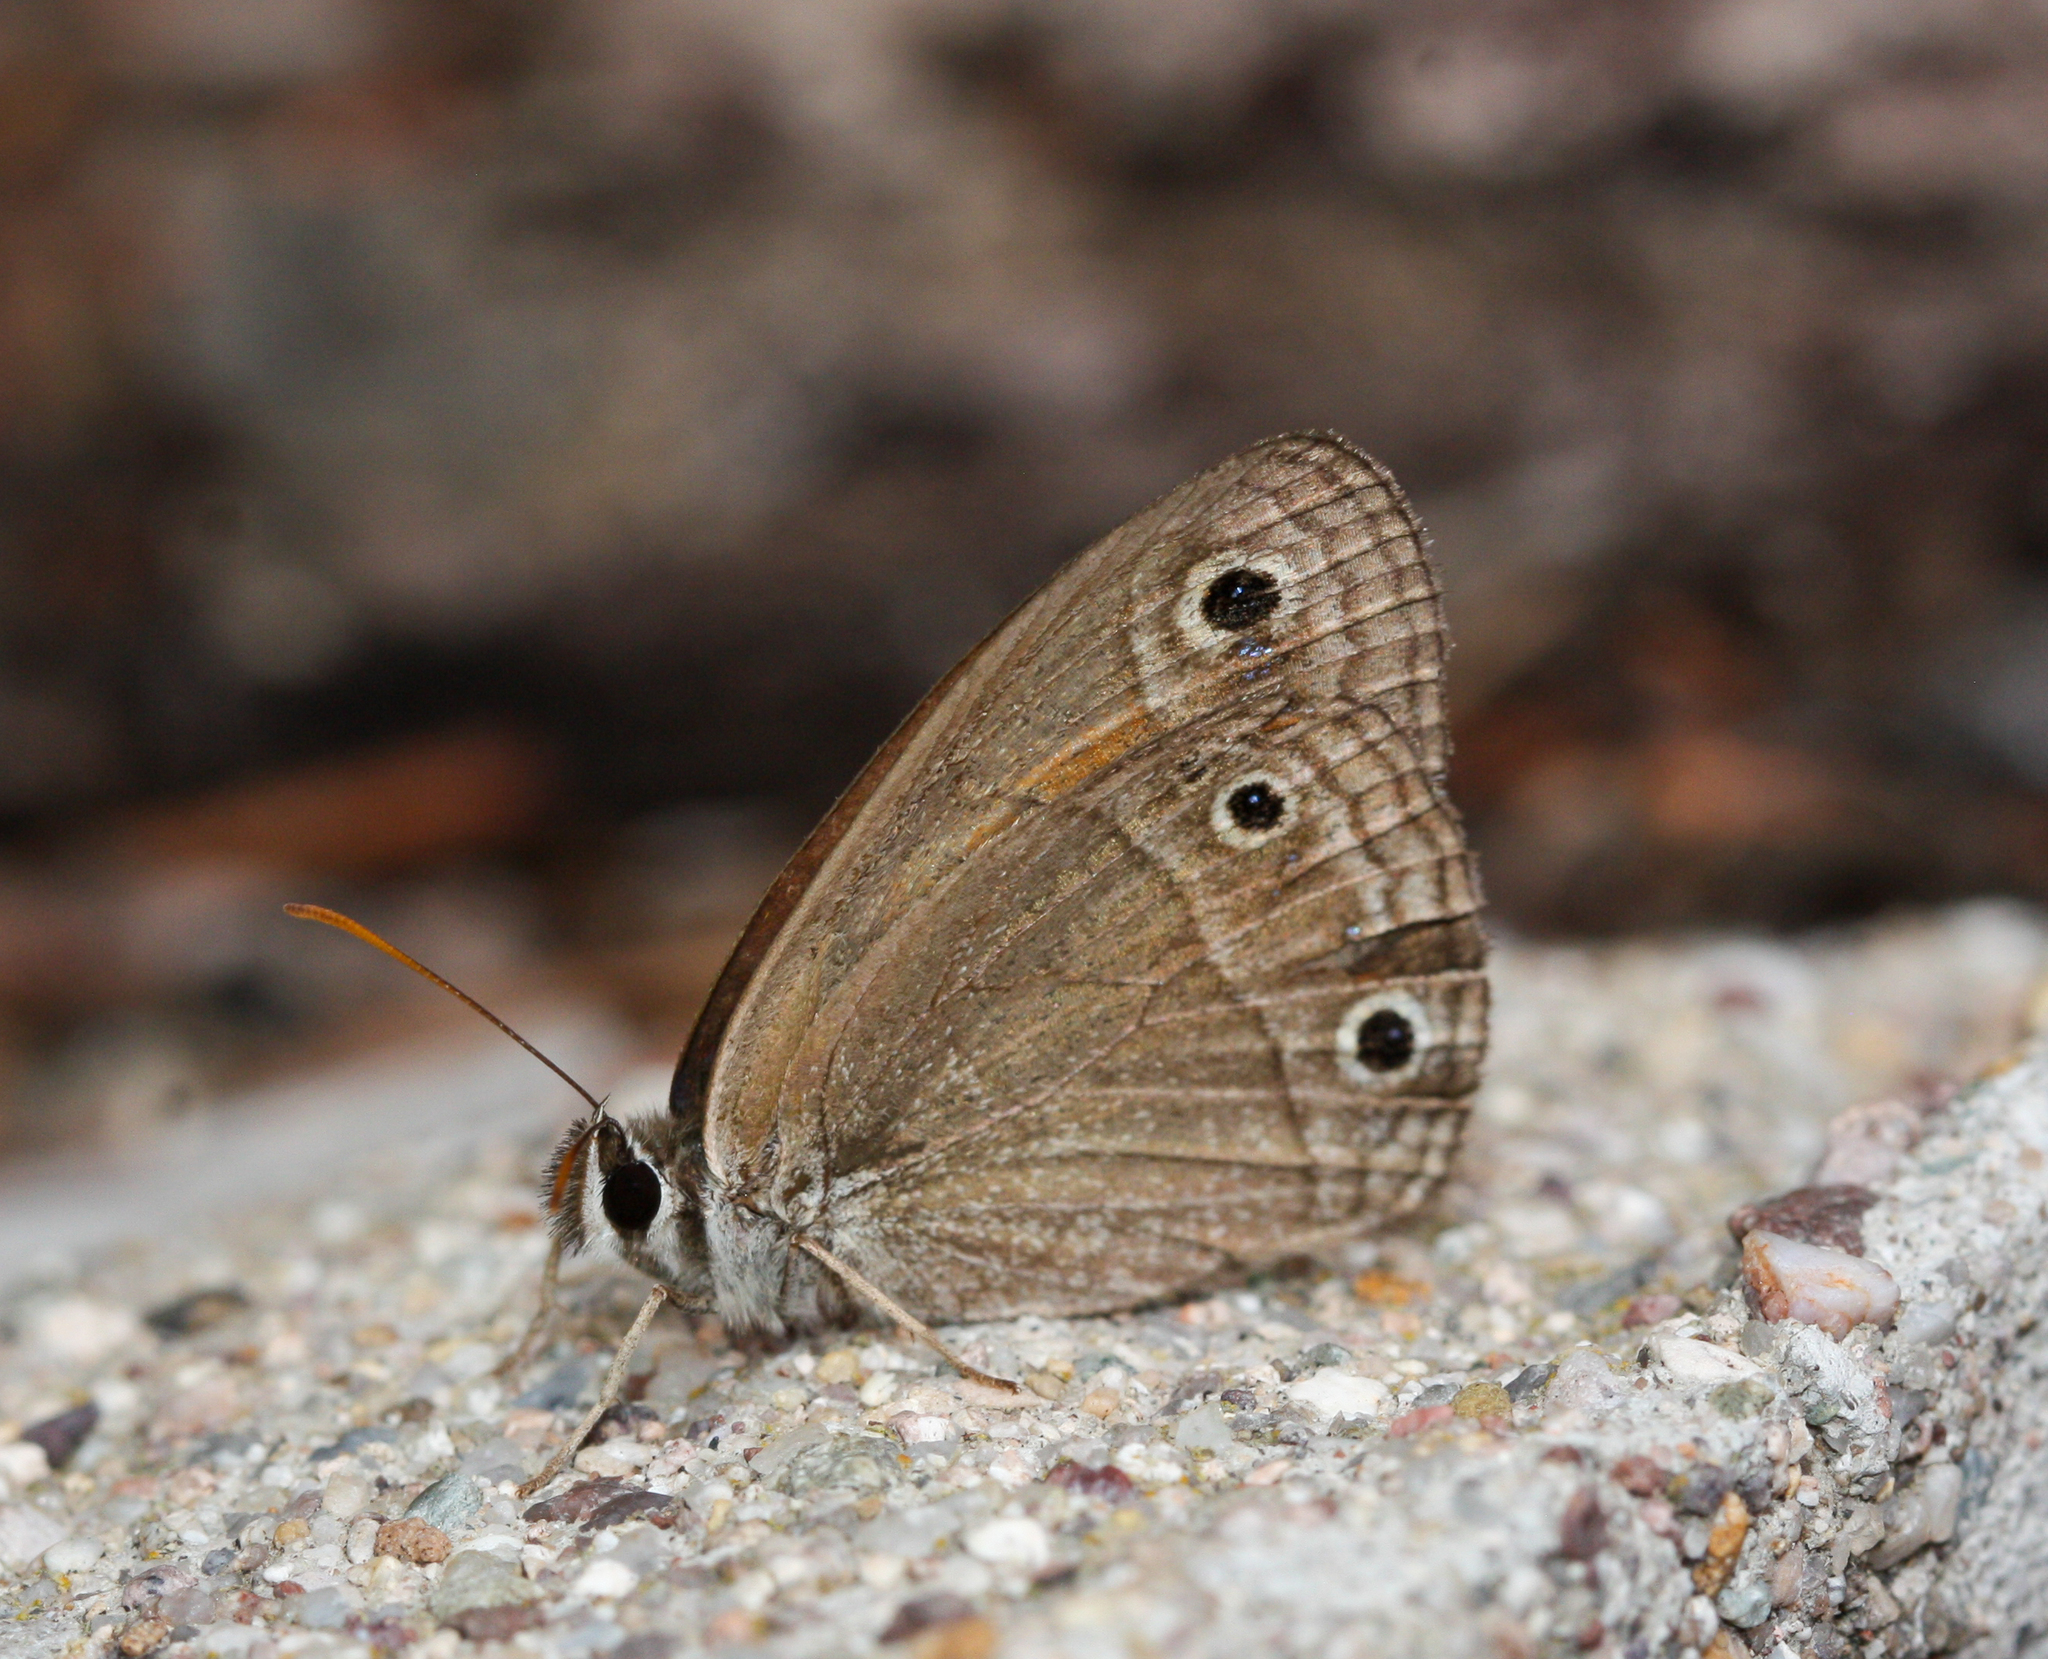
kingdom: Animalia
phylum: Arthropoda
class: Insecta
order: Lepidoptera
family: Nymphalidae
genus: Euptychia
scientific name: Euptychia
